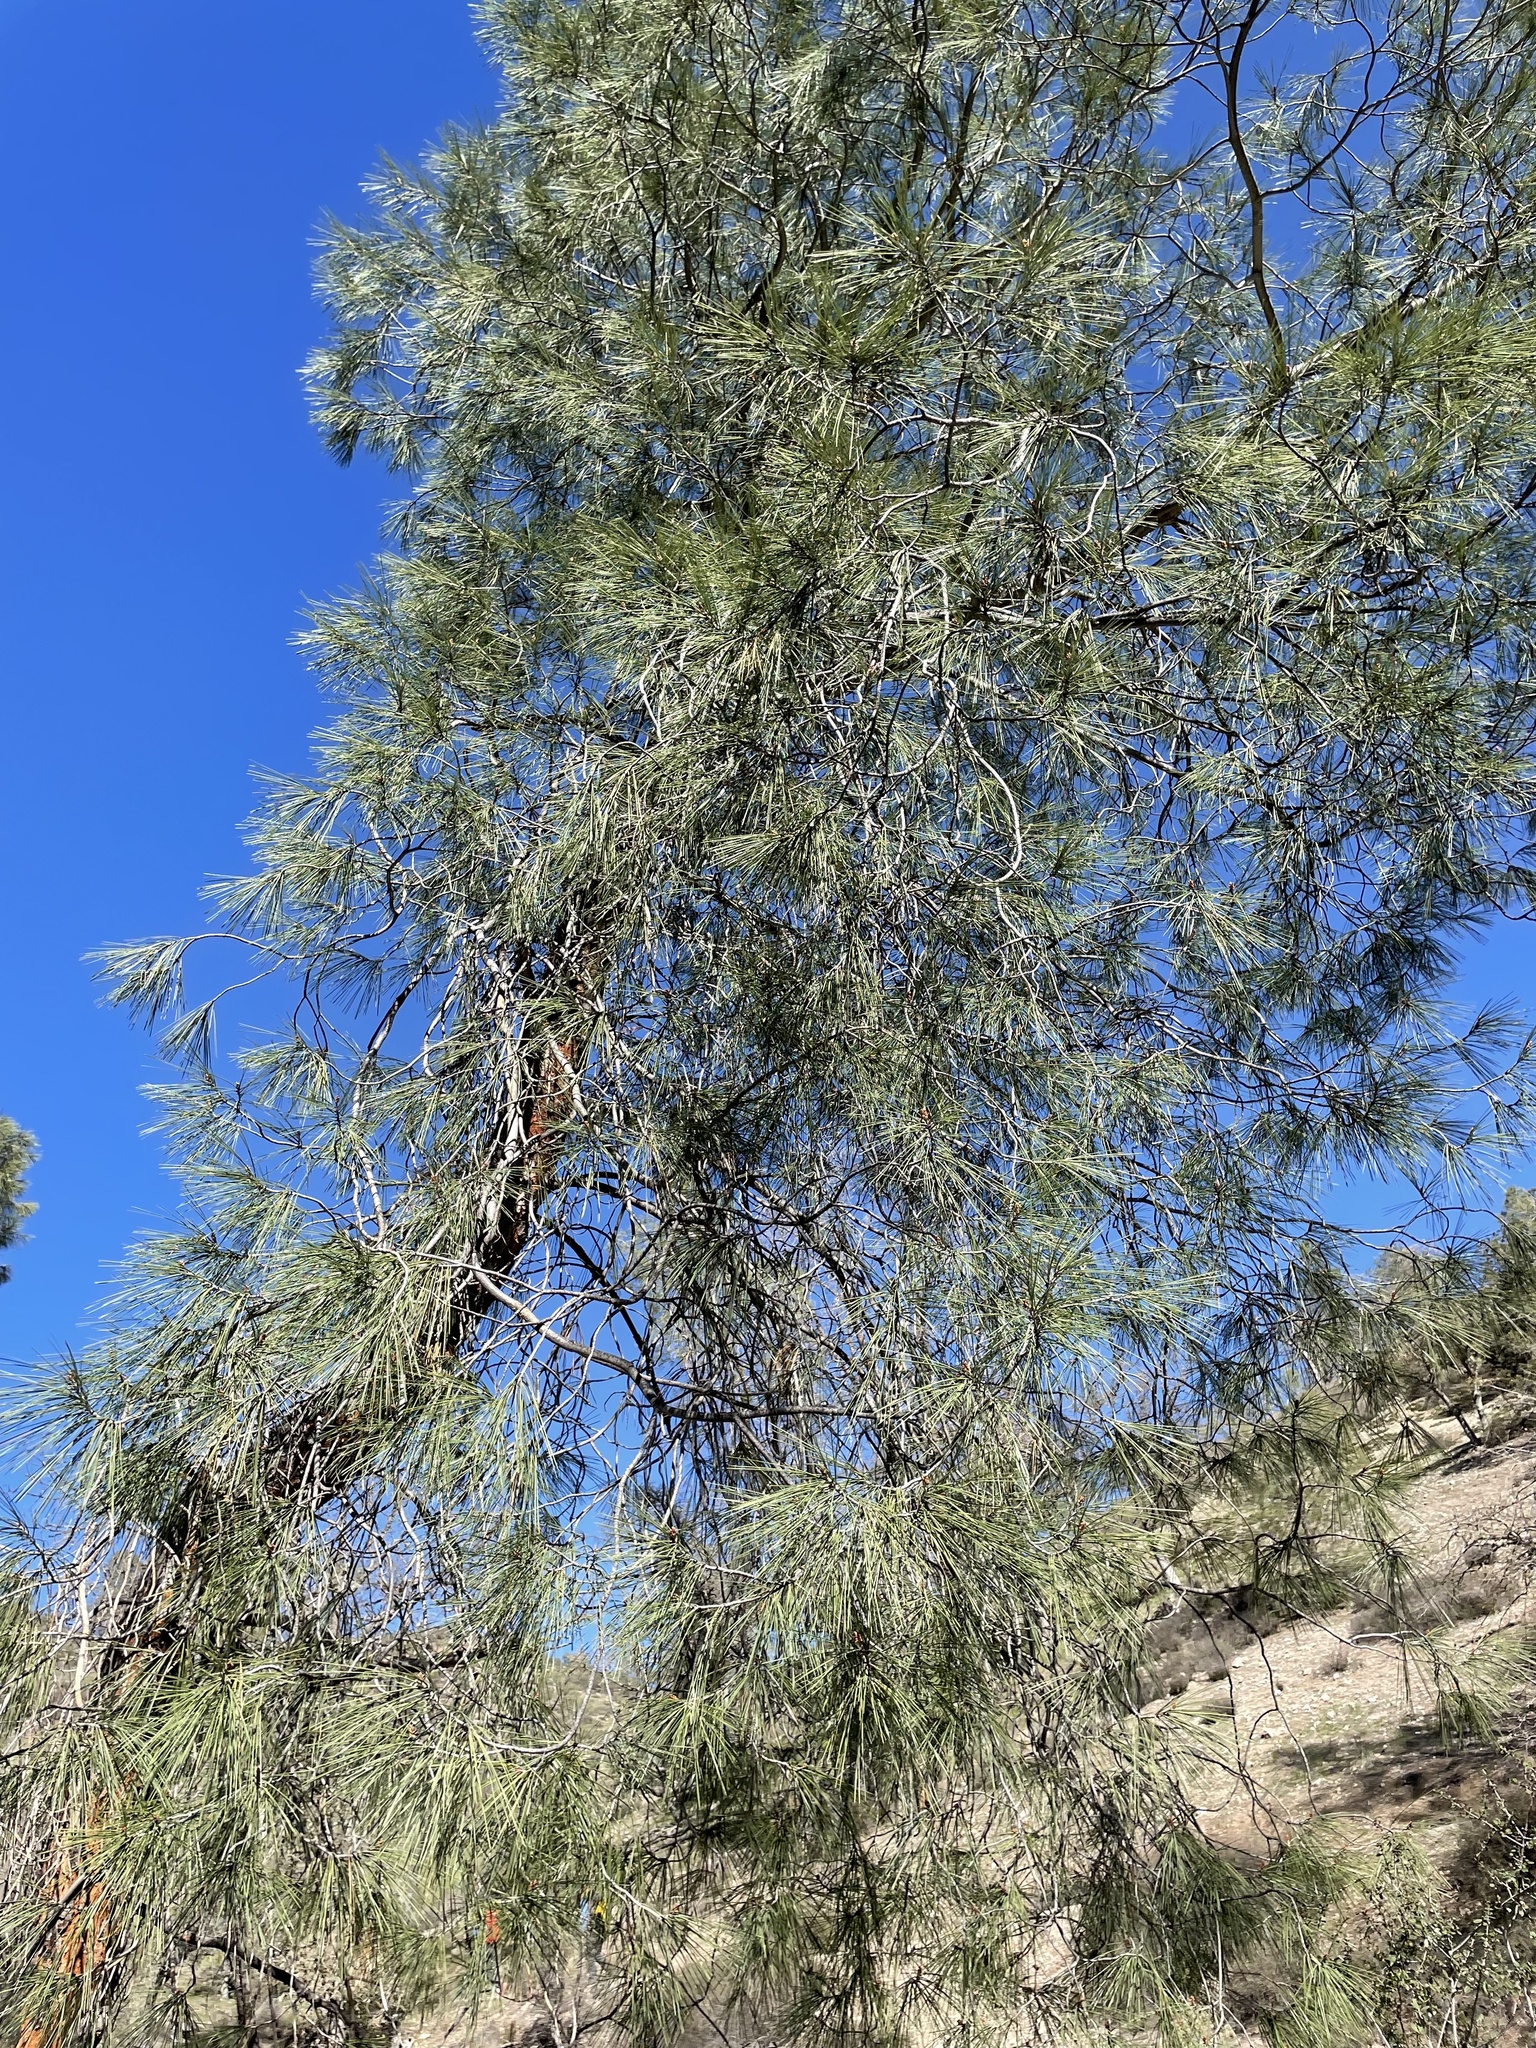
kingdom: Plantae
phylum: Tracheophyta
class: Pinopsida
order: Pinales
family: Pinaceae
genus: Pinus
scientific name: Pinus sabiniana
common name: Bull pine
